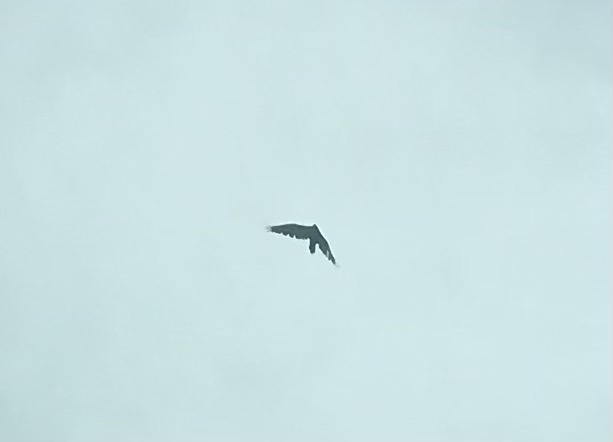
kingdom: Animalia
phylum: Chordata
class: Aves
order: Accipitriformes
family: Cathartidae
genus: Cathartes
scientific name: Cathartes aura
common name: Turkey vulture
